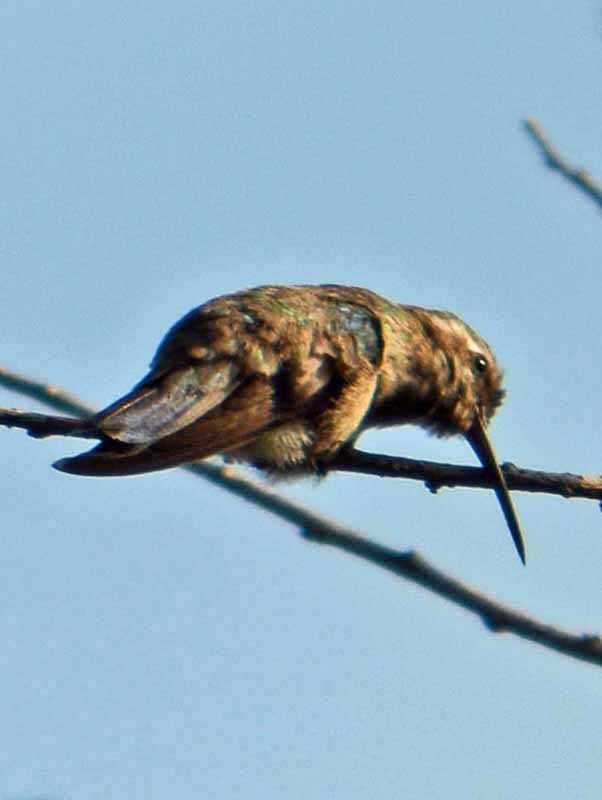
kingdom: Animalia
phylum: Chordata
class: Aves
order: Apodiformes
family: Trochilidae
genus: Cynanthus
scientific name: Cynanthus latirostris
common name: Broad-billed hummingbird
